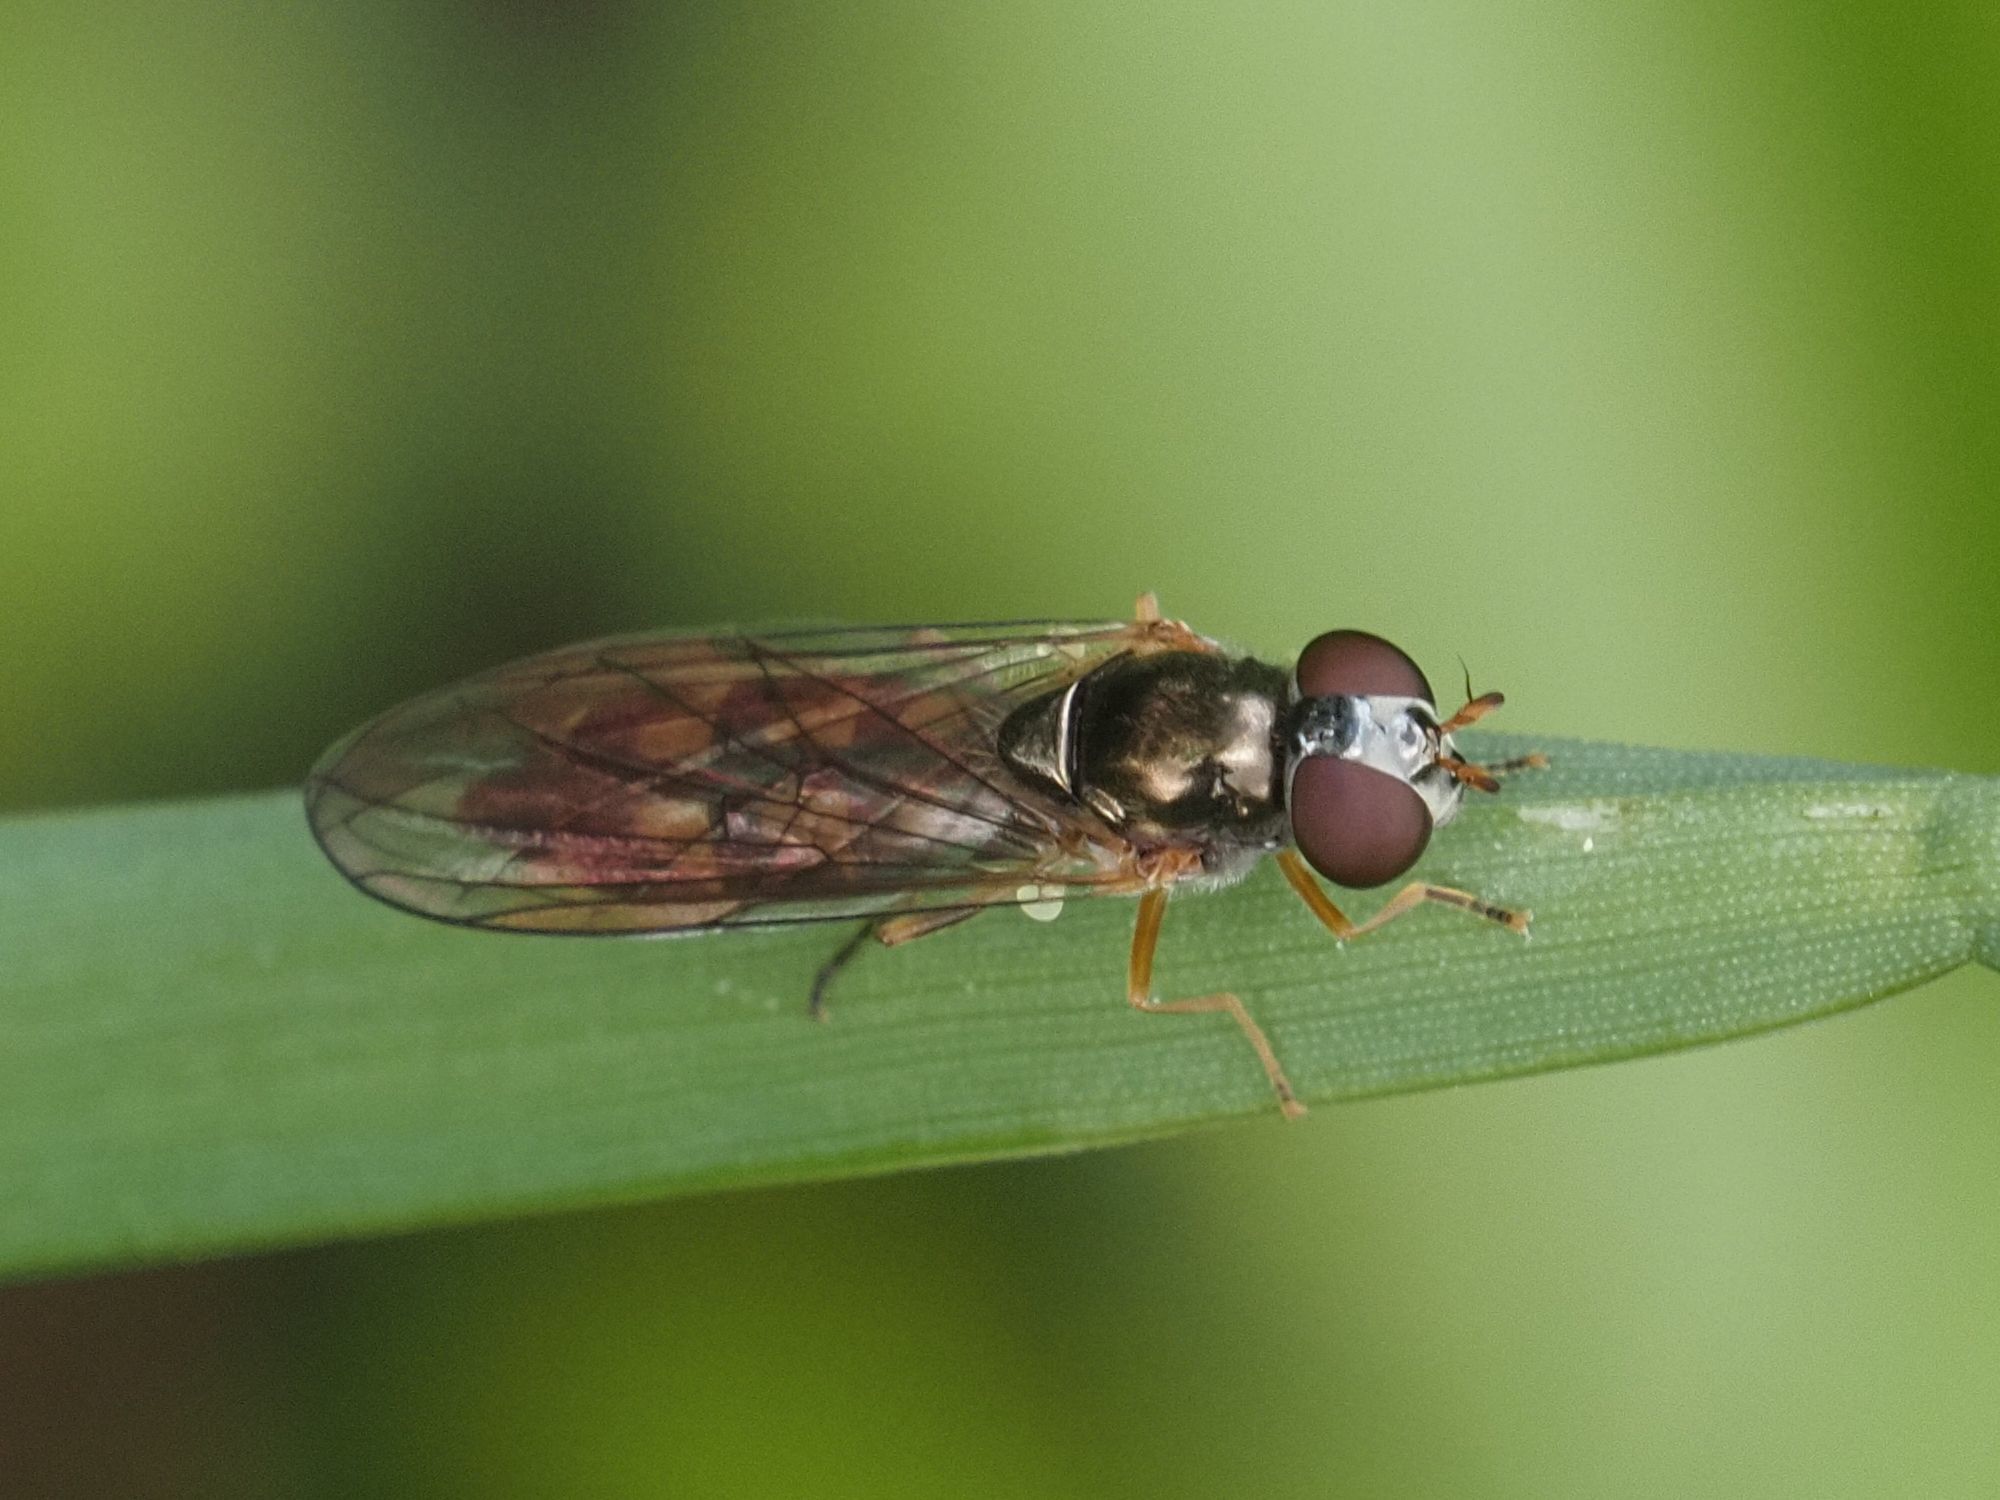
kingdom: Animalia
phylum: Arthropoda
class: Insecta
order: Diptera
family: Syrphidae
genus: Melanostoma
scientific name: Melanostoma scalare
